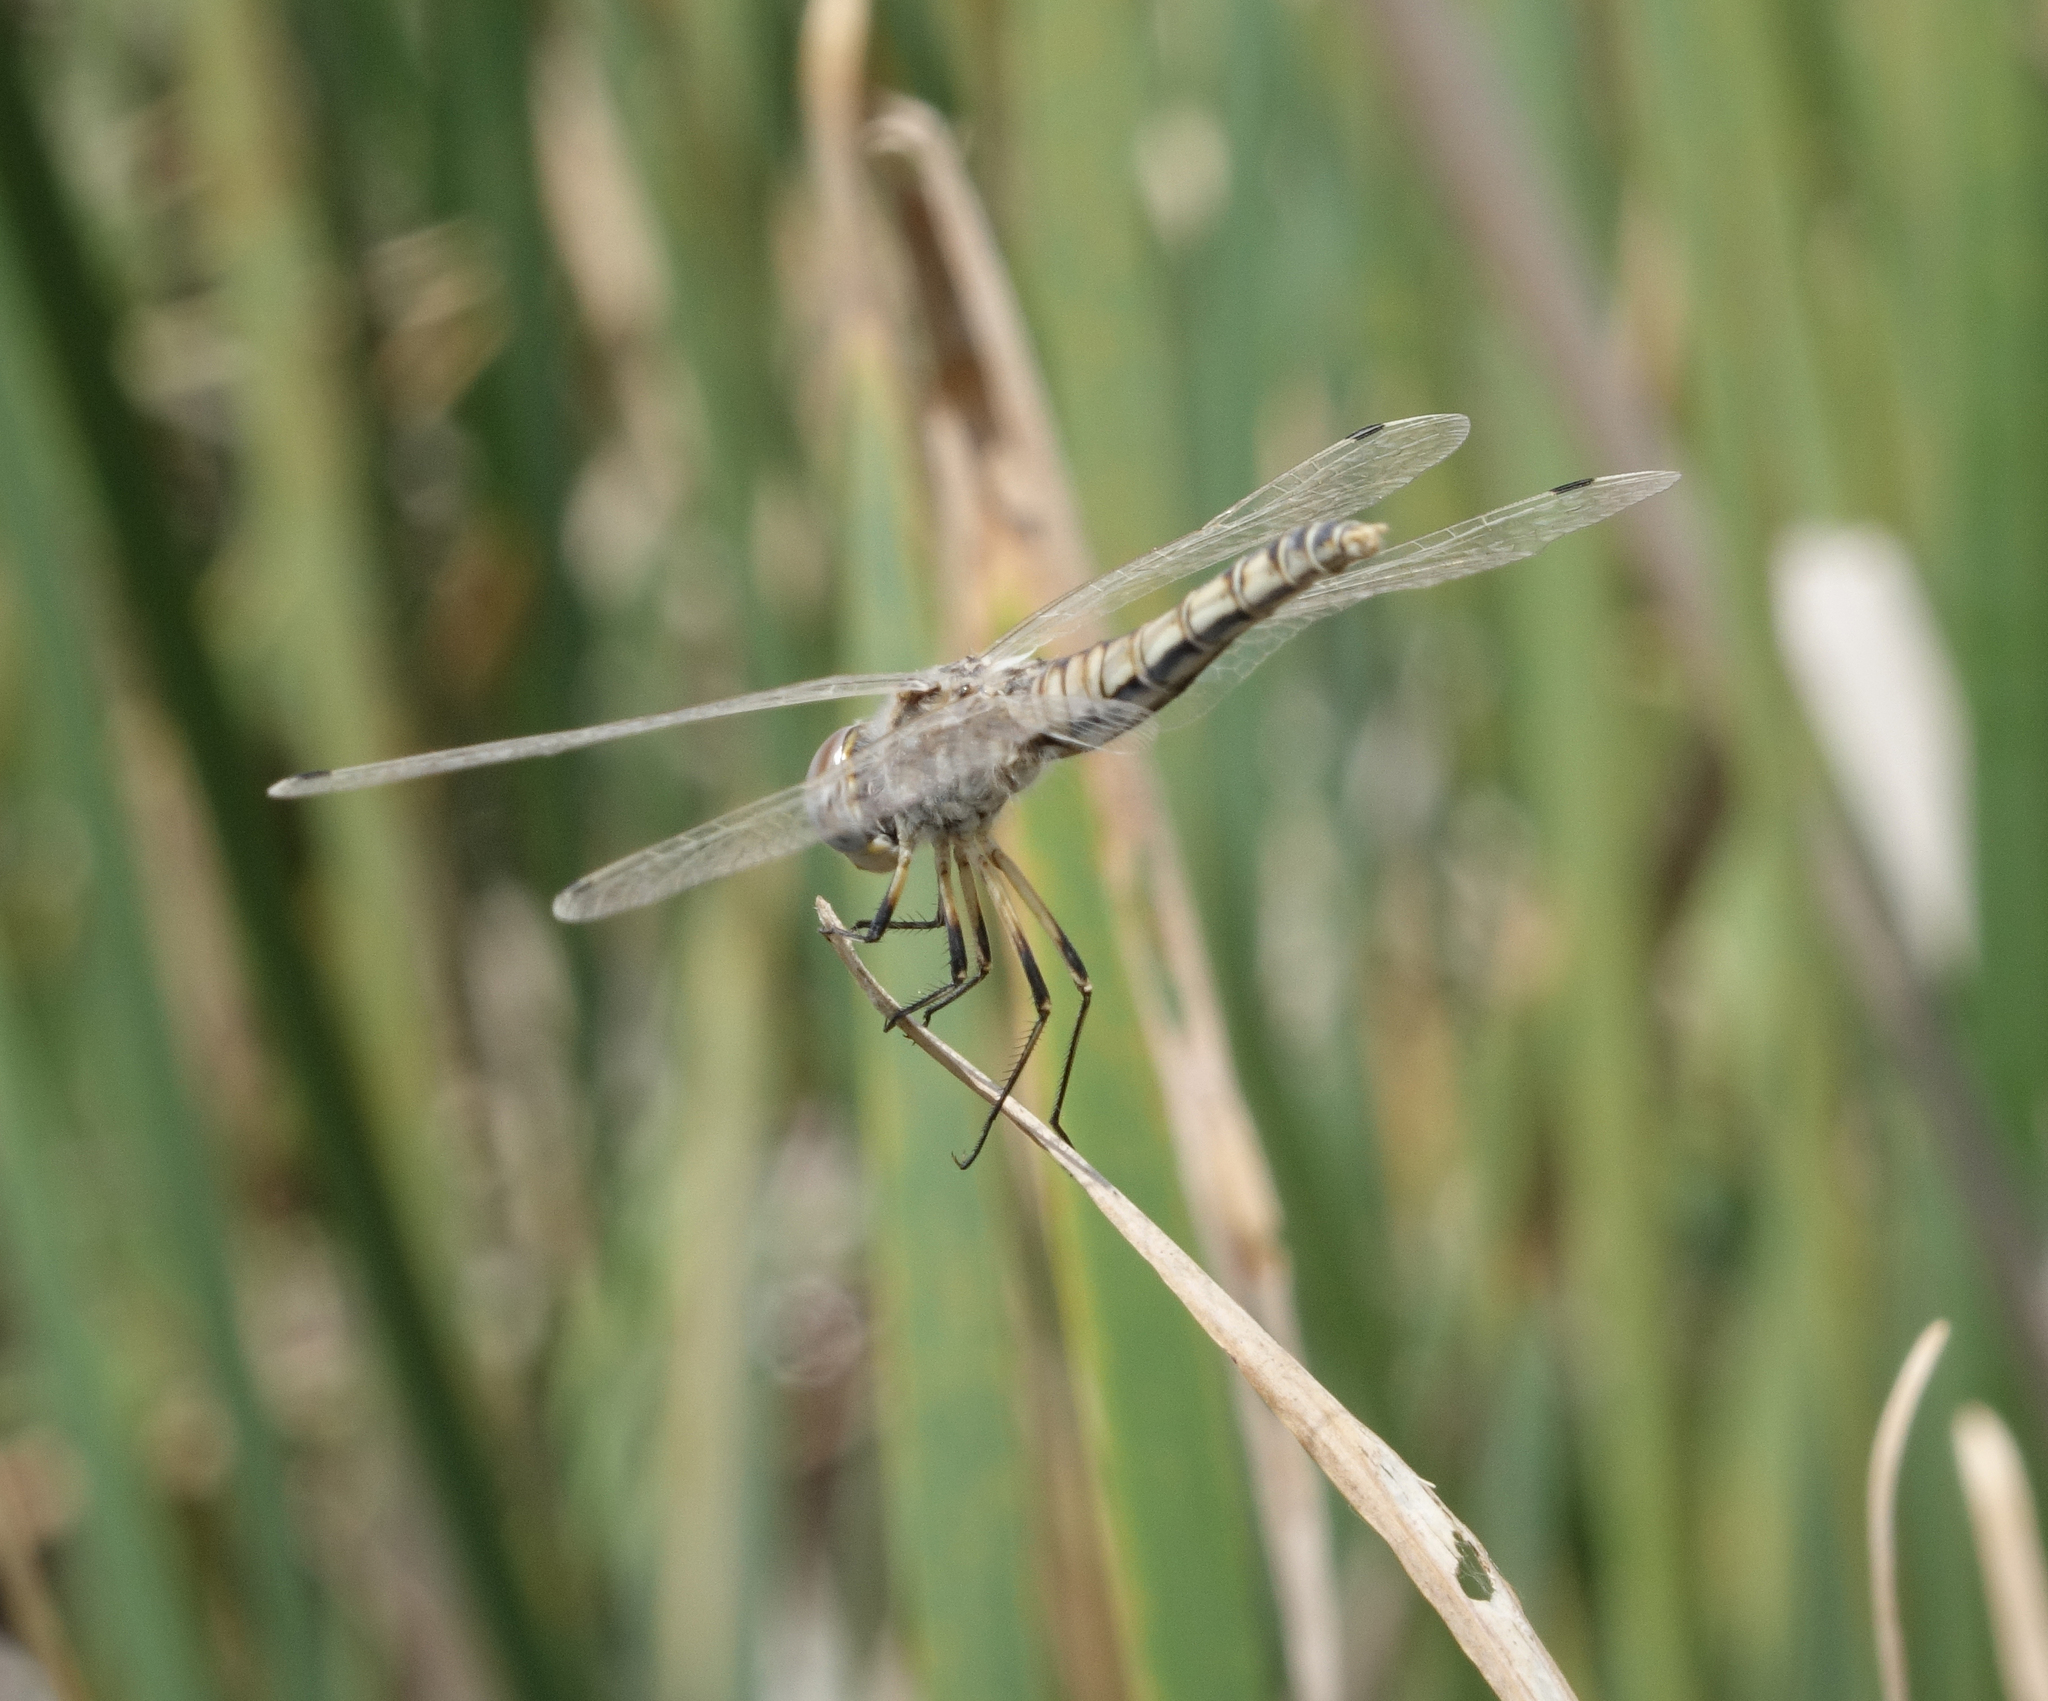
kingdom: Animalia
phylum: Arthropoda
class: Insecta
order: Odonata
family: Libellulidae
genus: Selysiothemis
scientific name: Selysiothemis nigra
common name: Black pennant
